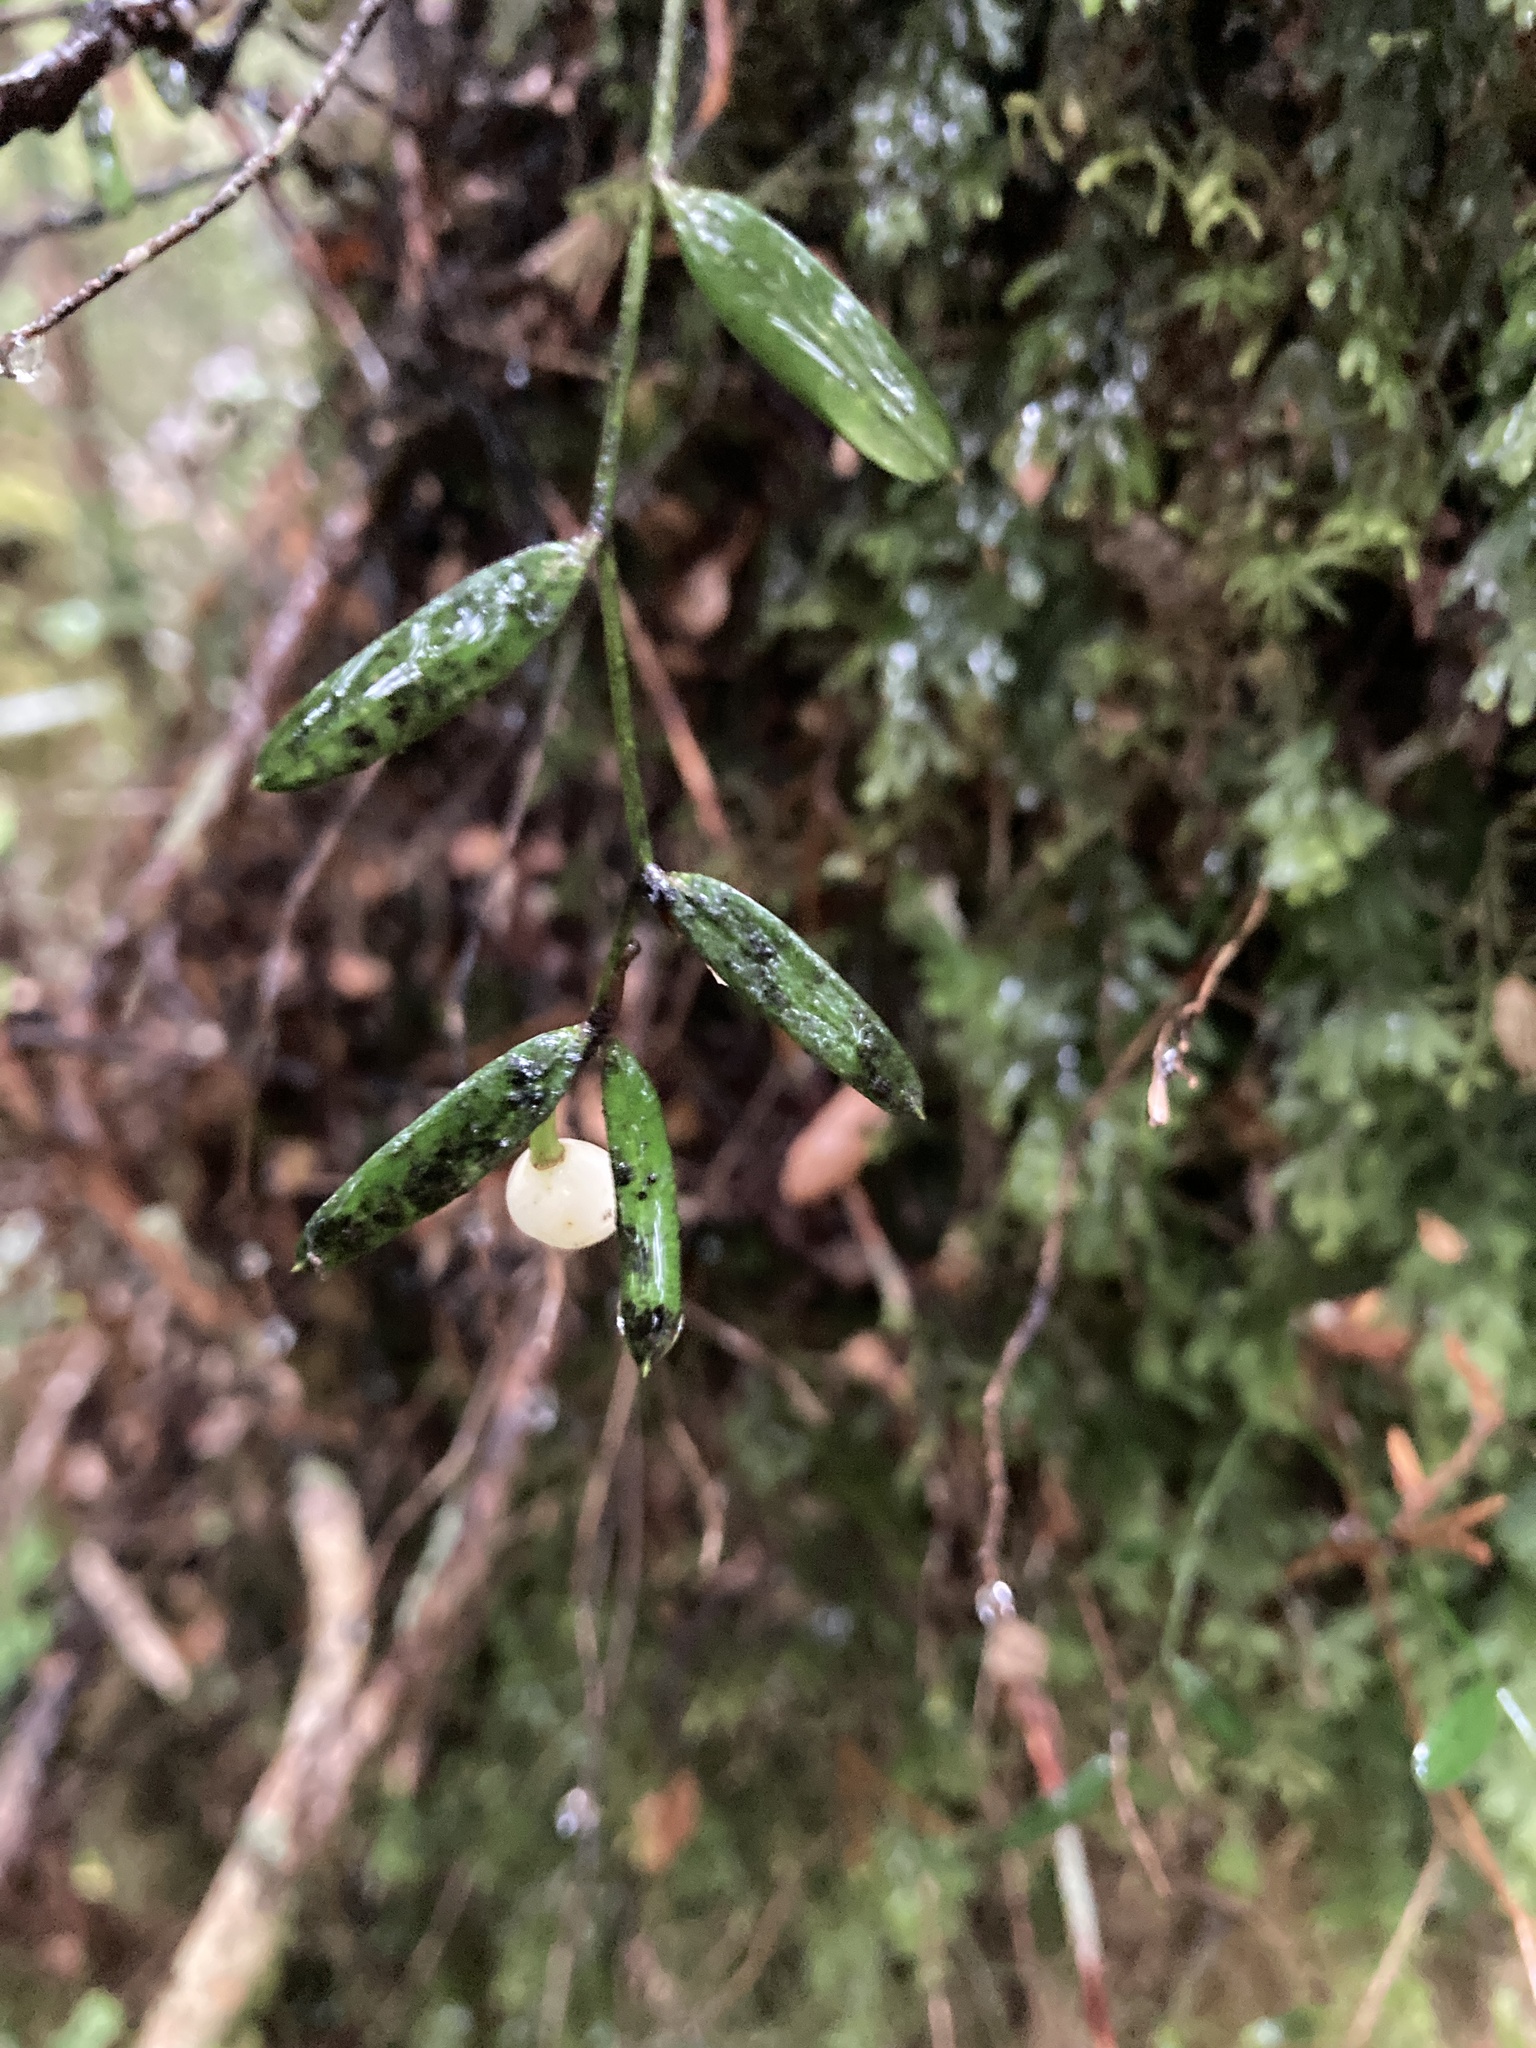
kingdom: Plantae
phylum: Tracheophyta
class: Liliopsida
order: Liliales
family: Alstroemeriaceae
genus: Luzuriaga
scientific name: Luzuriaga parviflora
